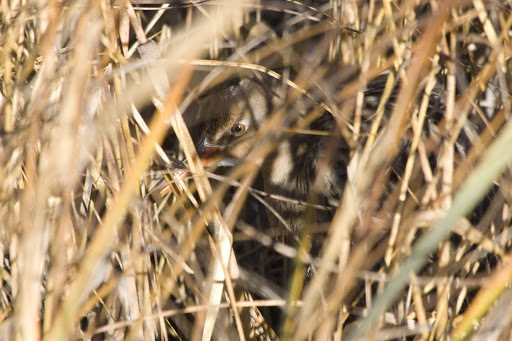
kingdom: Animalia
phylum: Chordata
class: Aves
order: Gruiformes
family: Rallidae
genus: Rallus
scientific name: Rallus obsoletus
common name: Ridgway's rail
